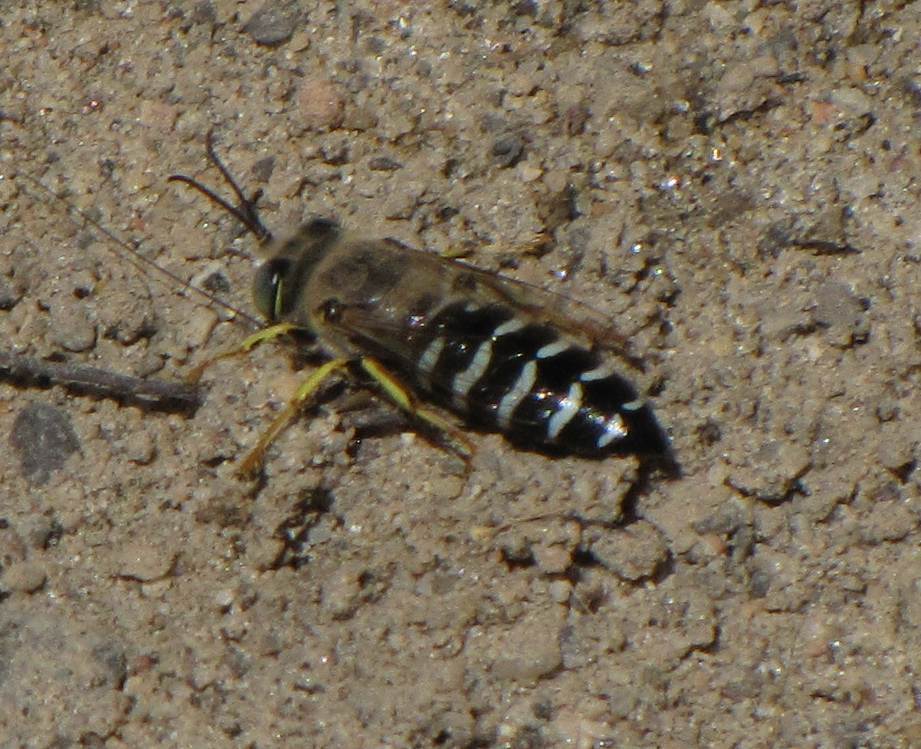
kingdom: Animalia
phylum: Arthropoda
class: Insecta
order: Hymenoptera
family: Crabronidae
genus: Bembix
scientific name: Bembix americana
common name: American sand wasp
